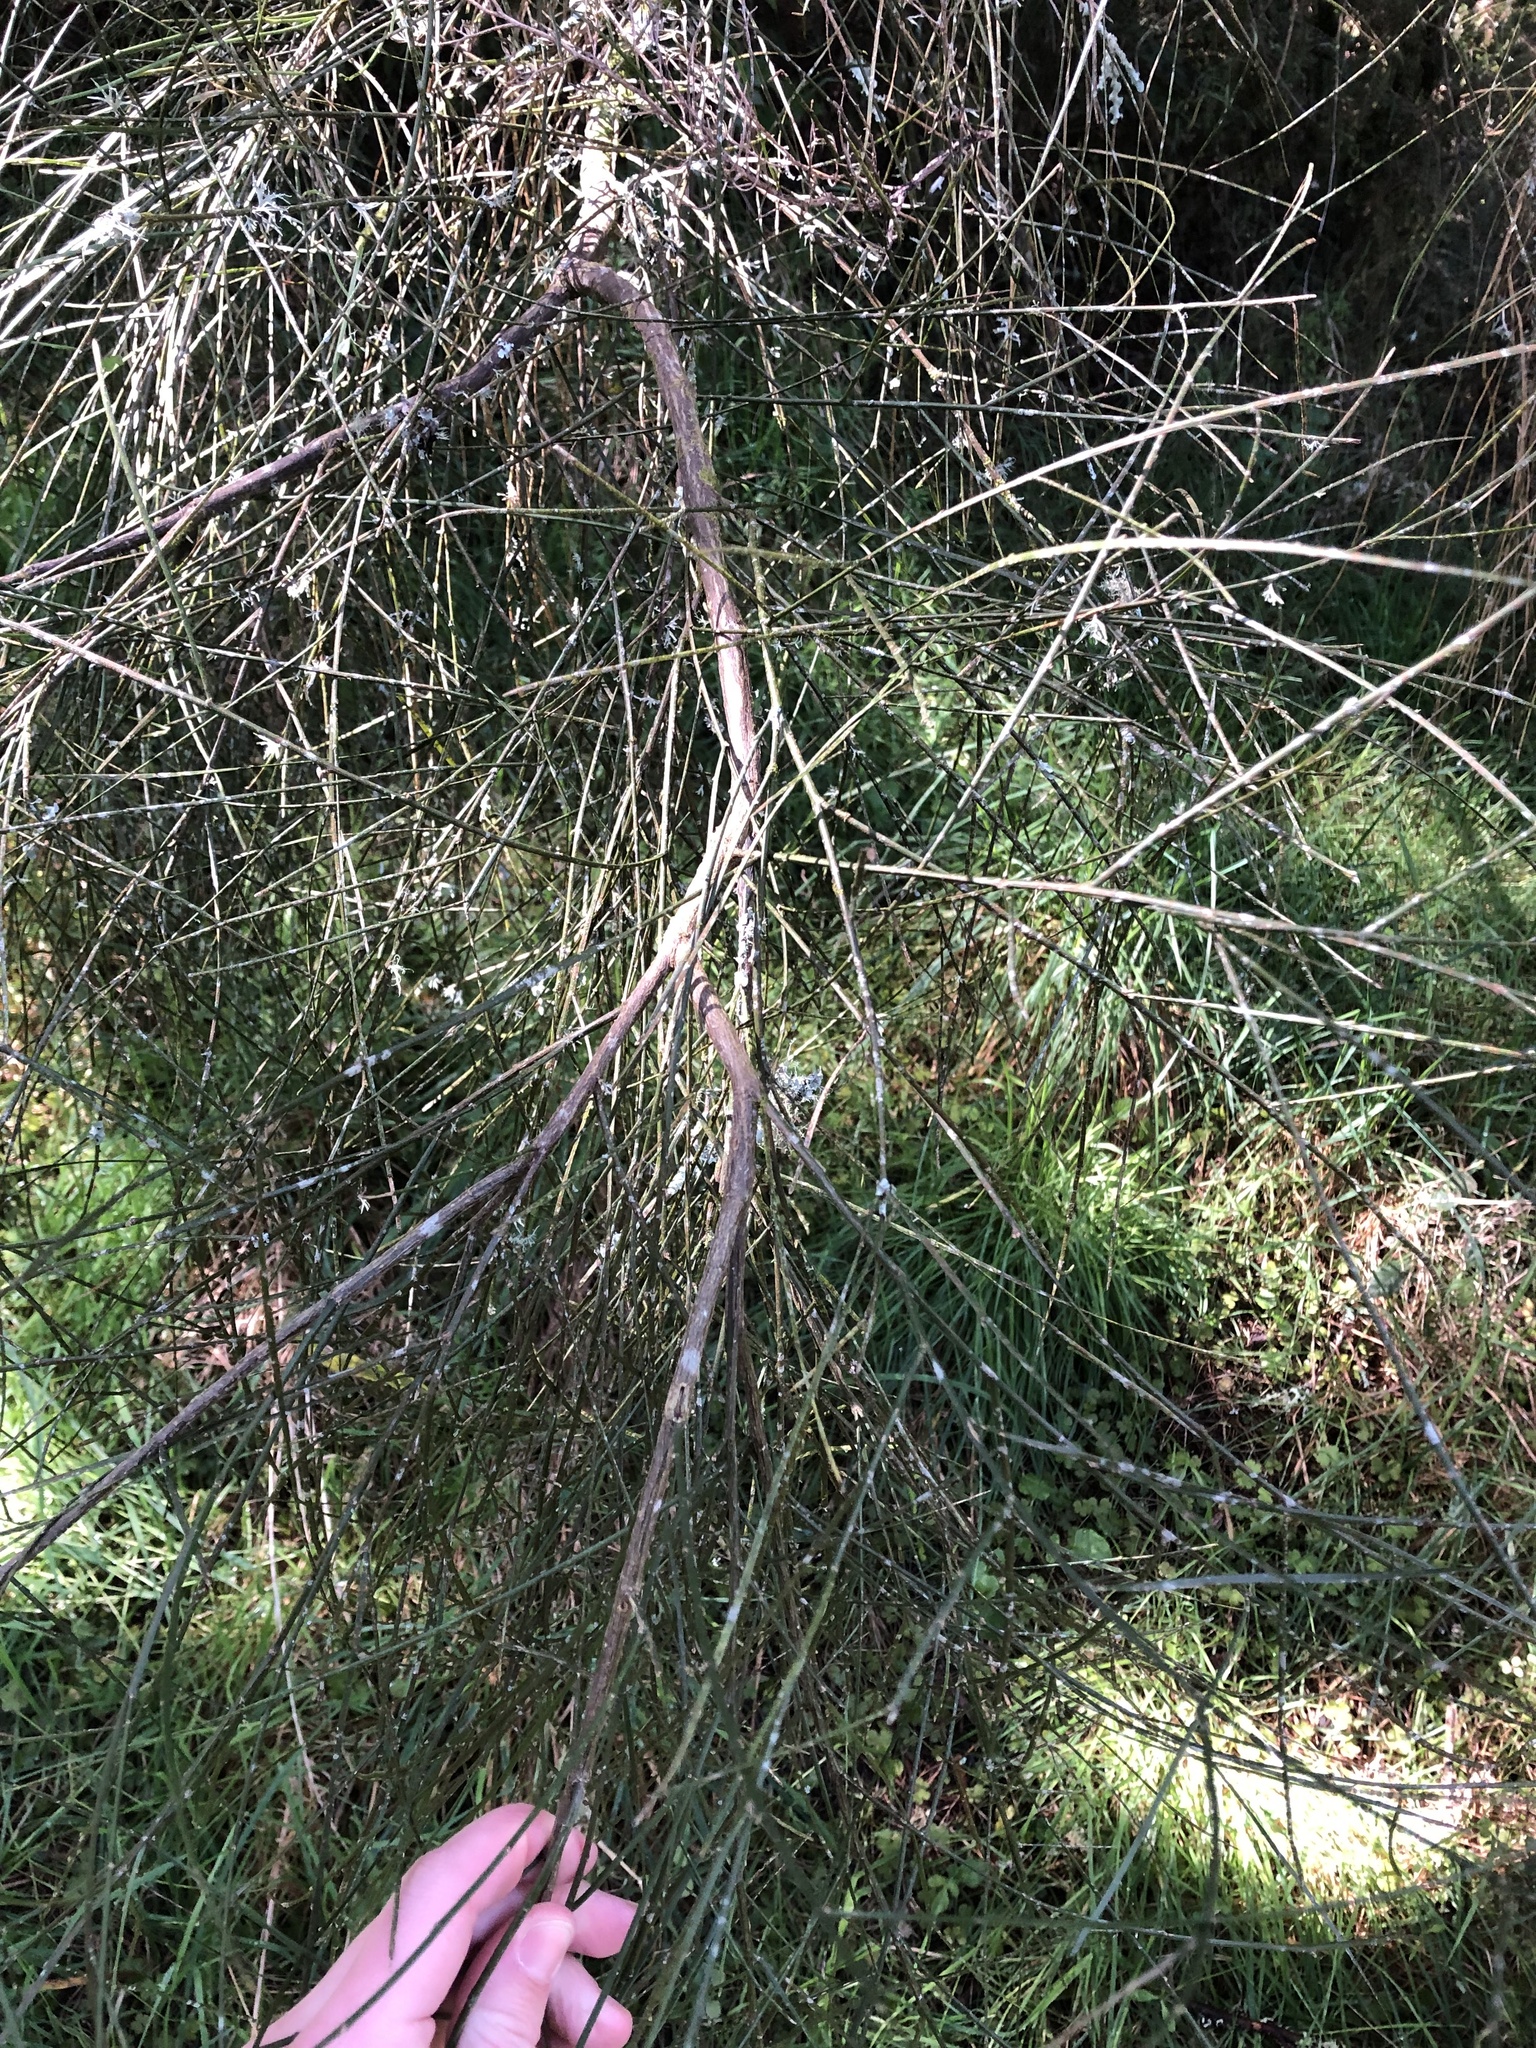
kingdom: Plantae
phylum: Tracheophyta
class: Magnoliopsida
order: Fabales
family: Fabaceae
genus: Carmichaelia
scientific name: Carmichaelia australis
